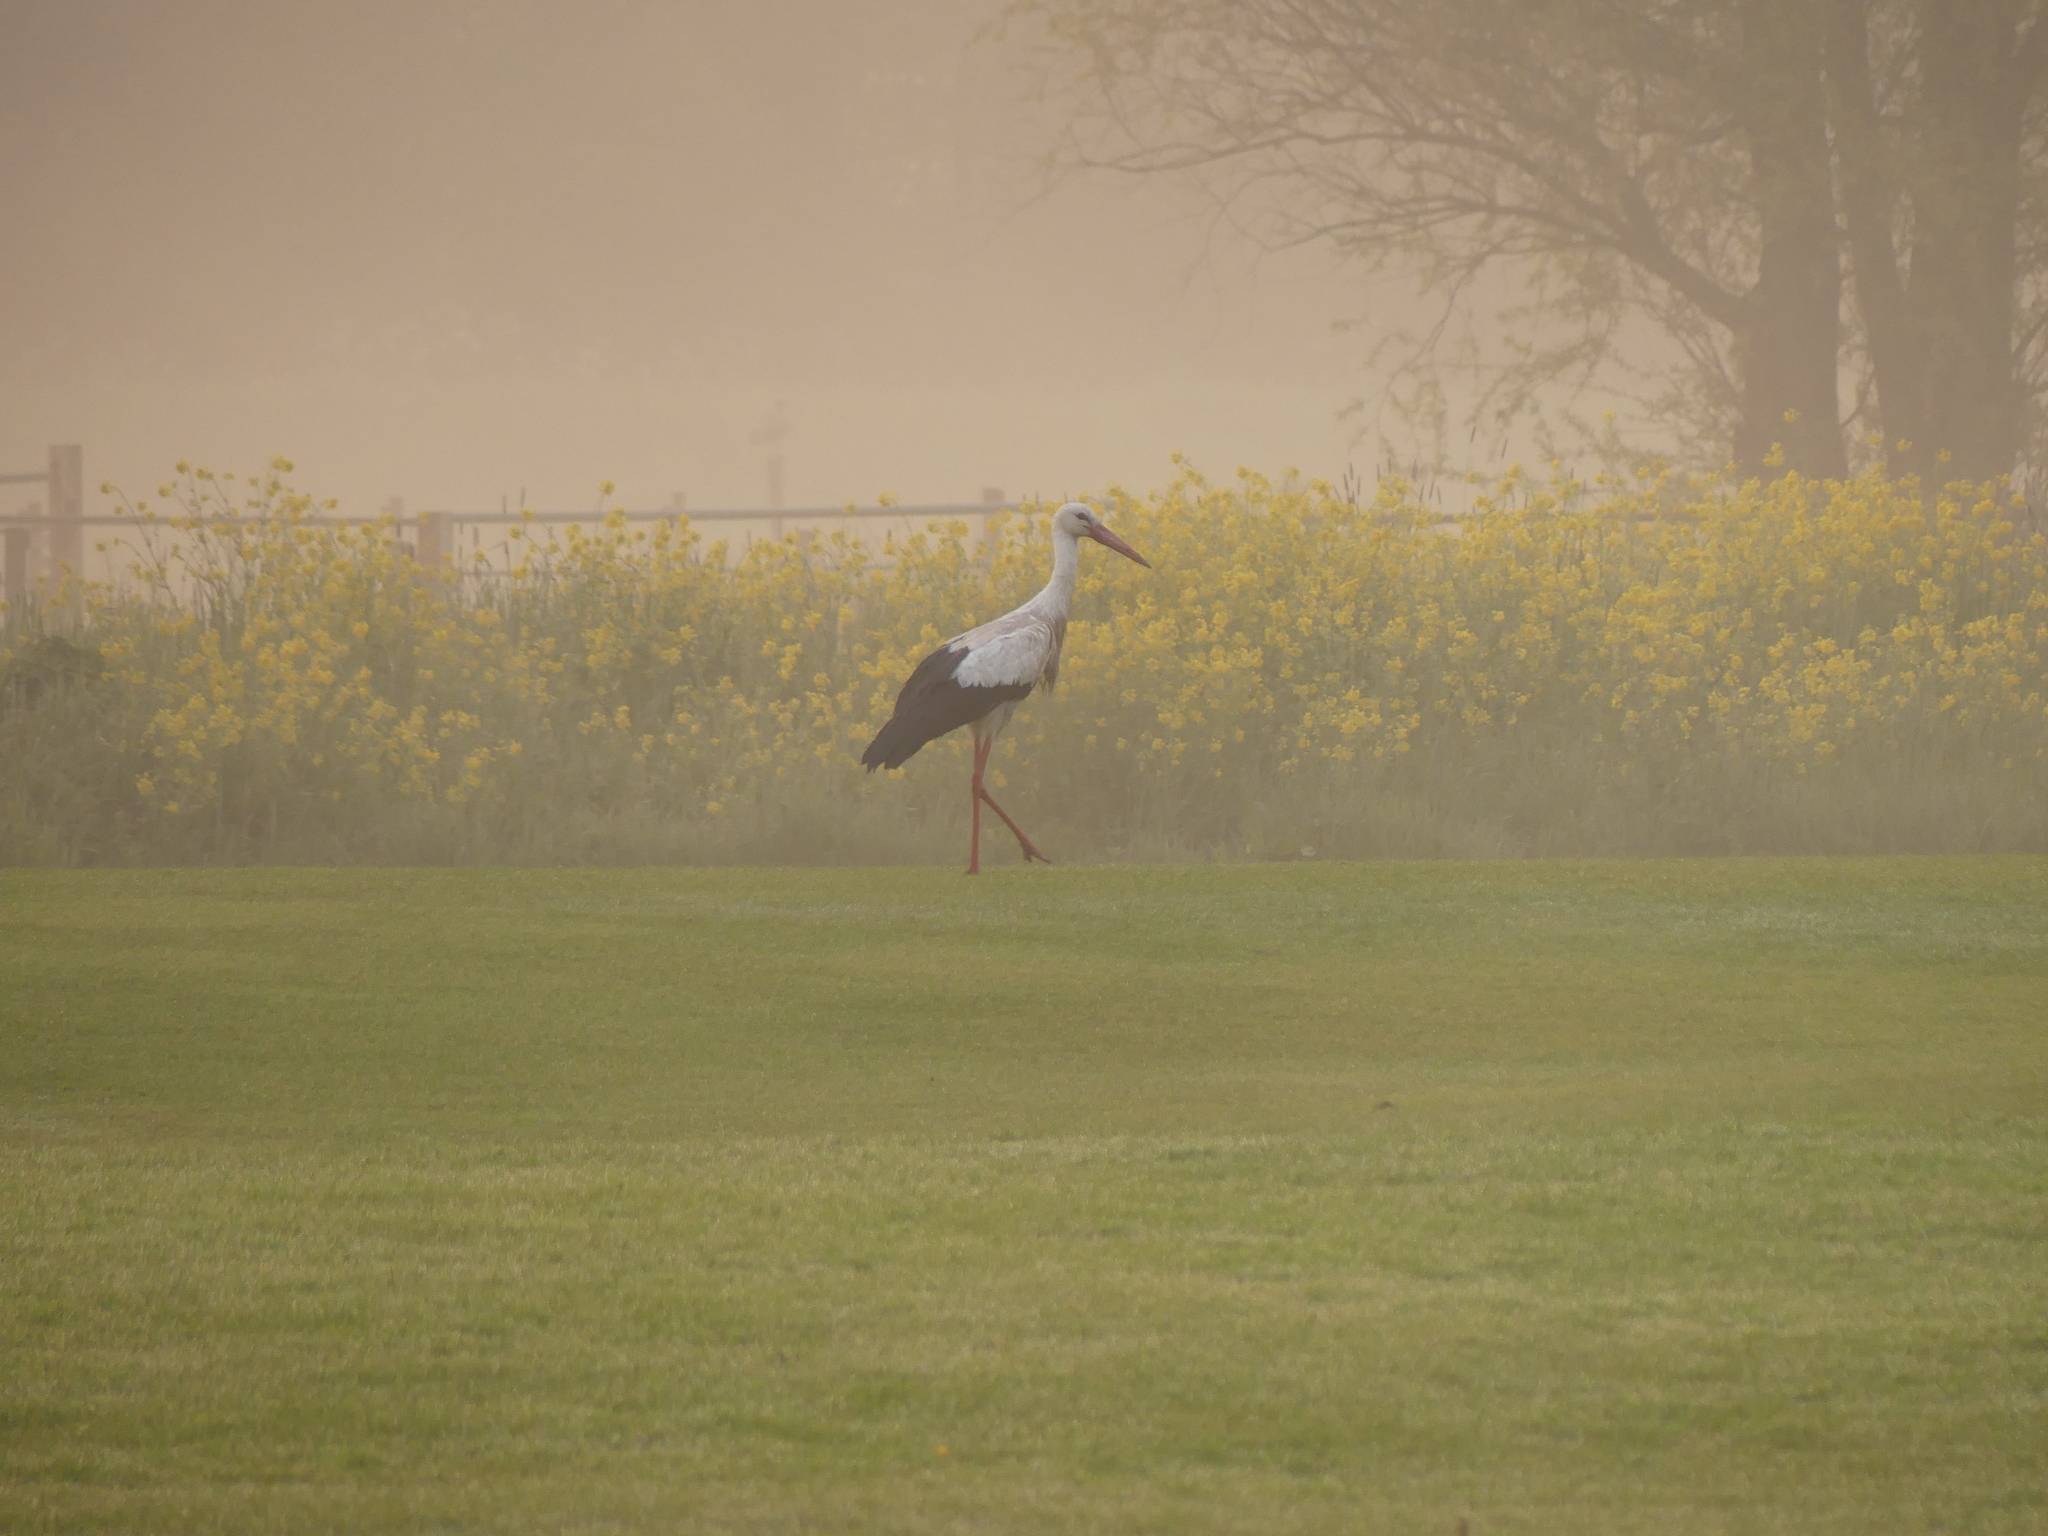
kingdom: Animalia
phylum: Chordata
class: Aves
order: Ciconiiformes
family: Ciconiidae
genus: Ciconia
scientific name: Ciconia ciconia
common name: White stork
